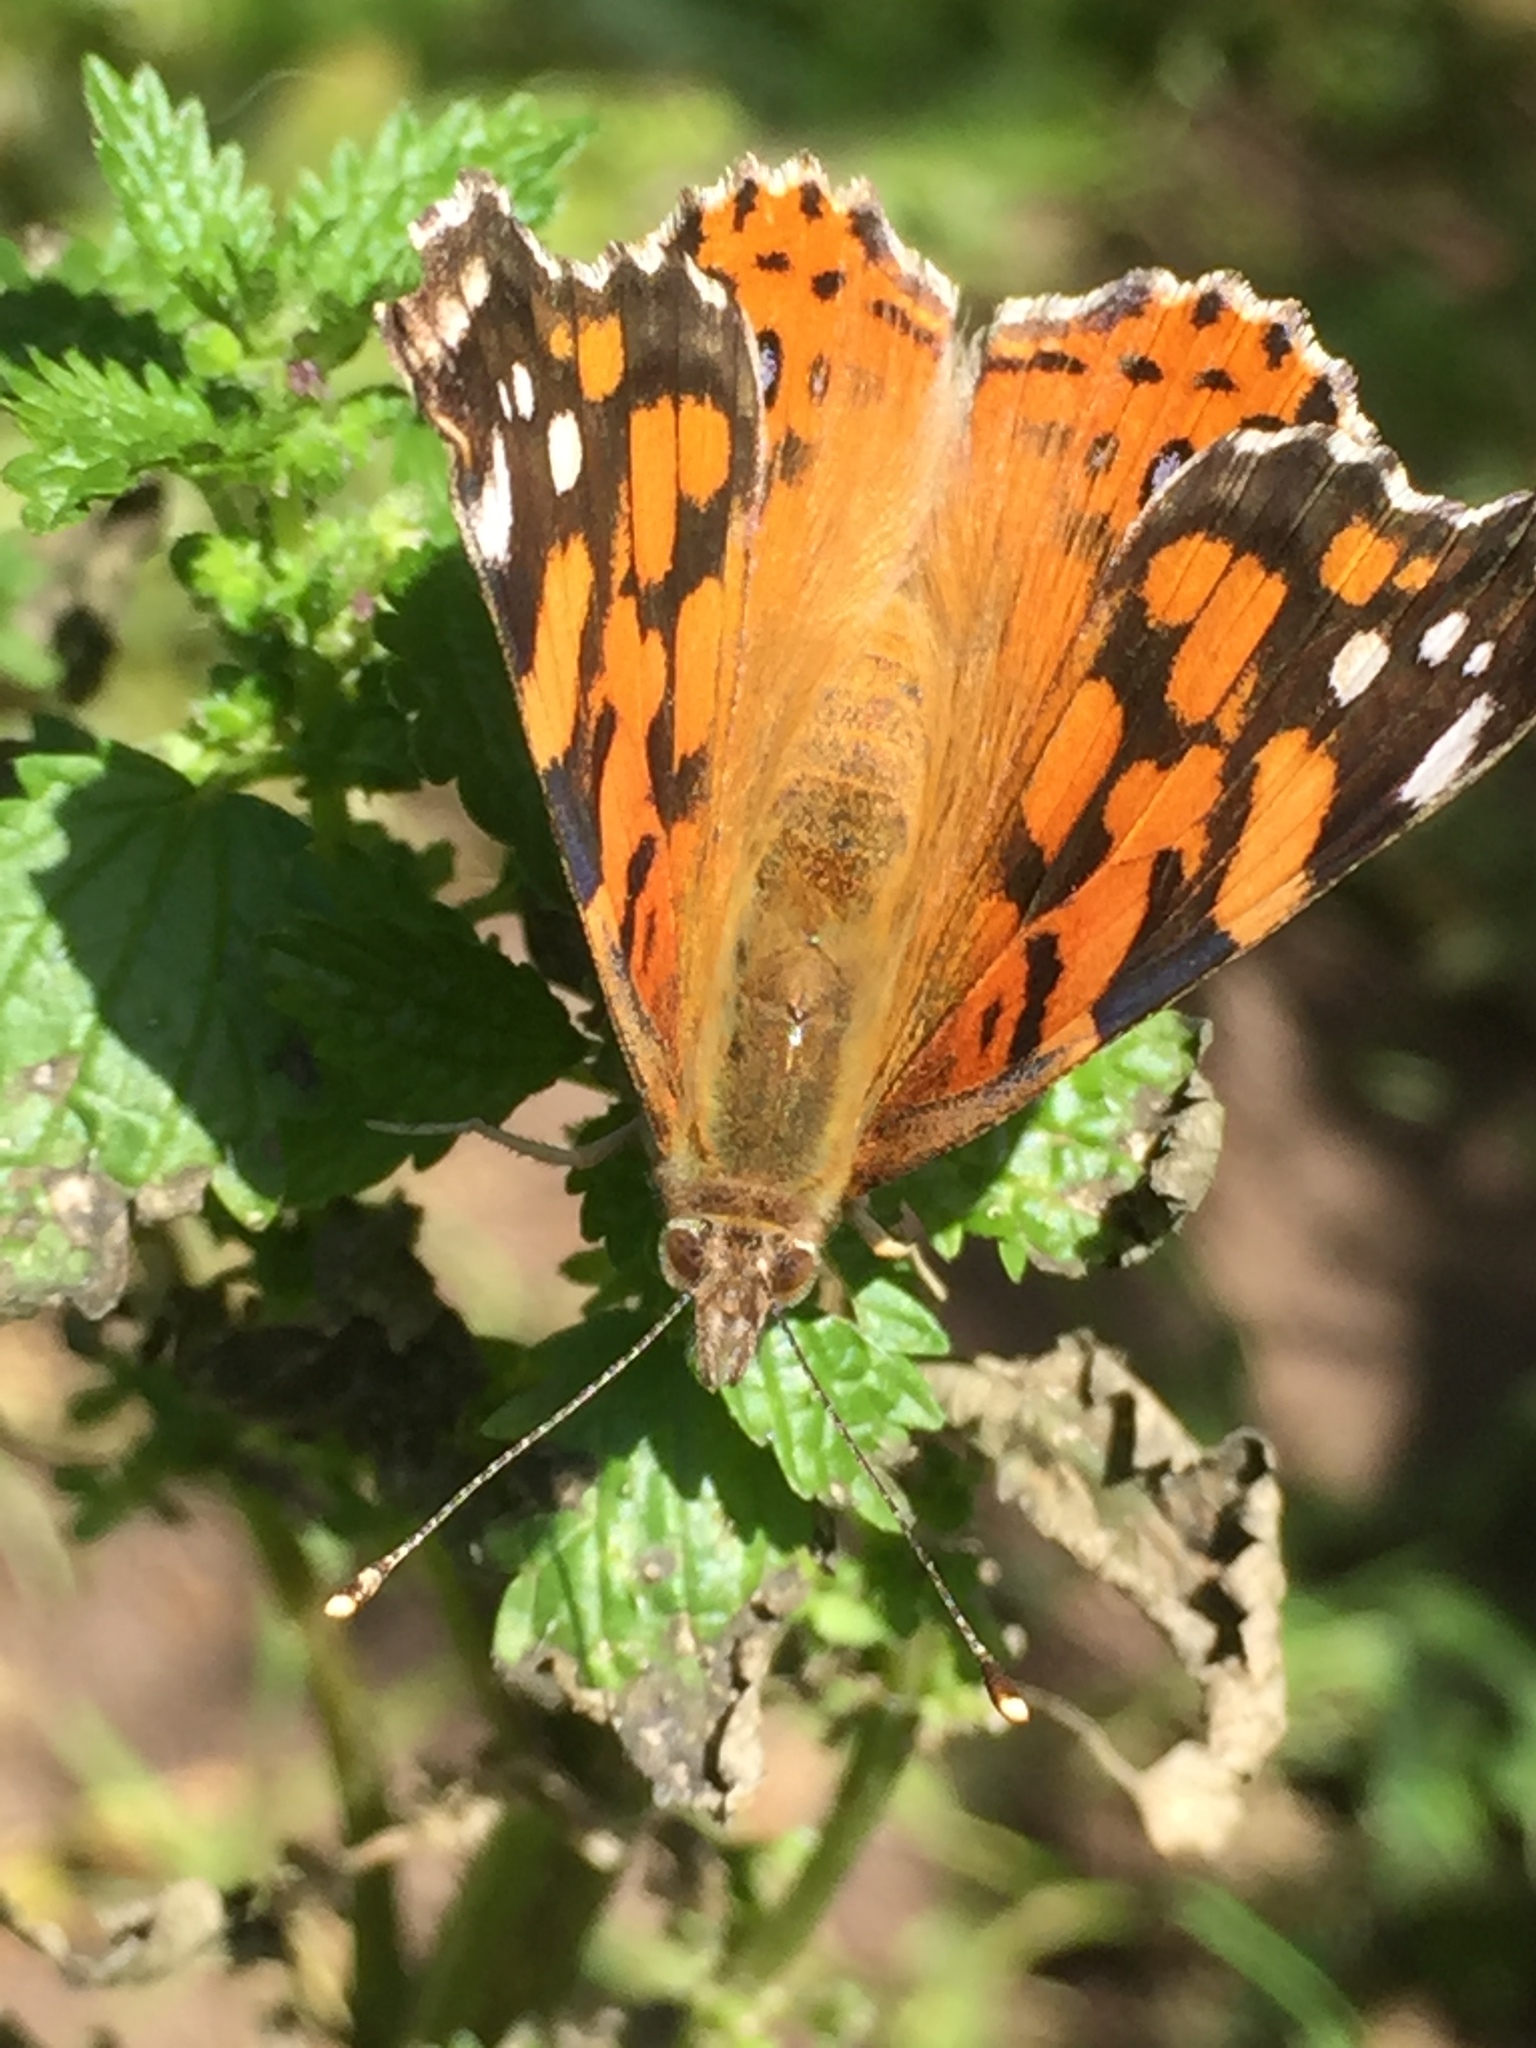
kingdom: Animalia
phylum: Arthropoda
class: Insecta
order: Lepidoptera
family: Nymphalidae
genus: Vanessa
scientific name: Vanessa annabella
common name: West coast lady
